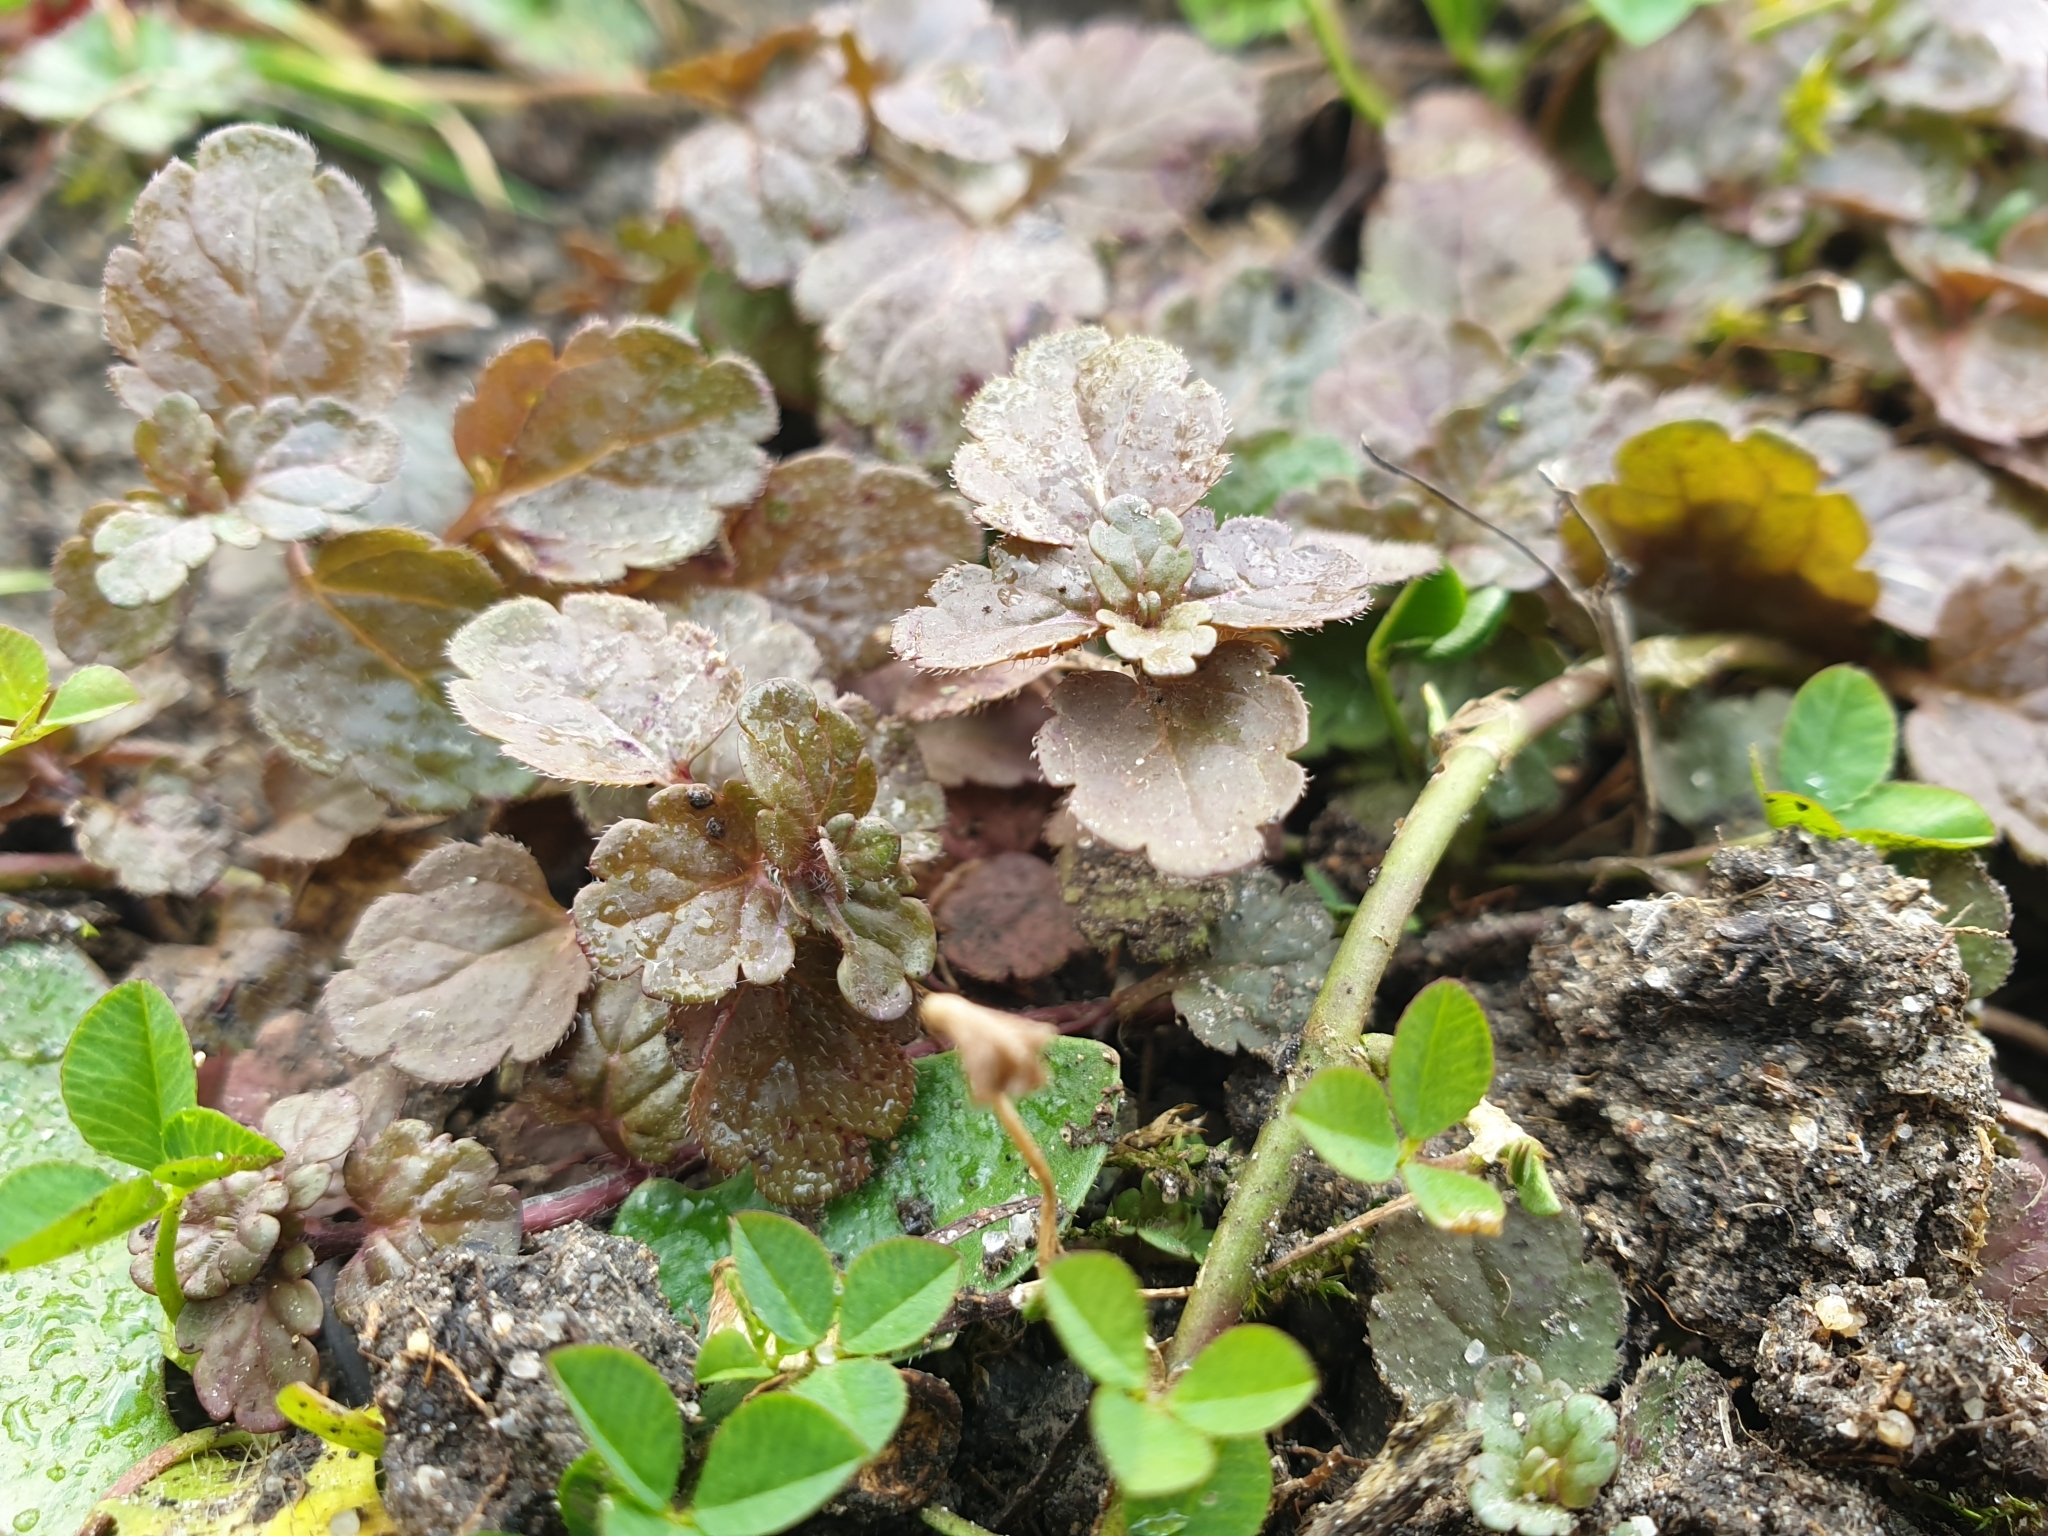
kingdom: Plantae
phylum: Tracheophyta
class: Magnoliopsida
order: Lamiales
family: Plantaginaceae
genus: Veronica
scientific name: Veronica chamaedrys
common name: Germander speedwell
